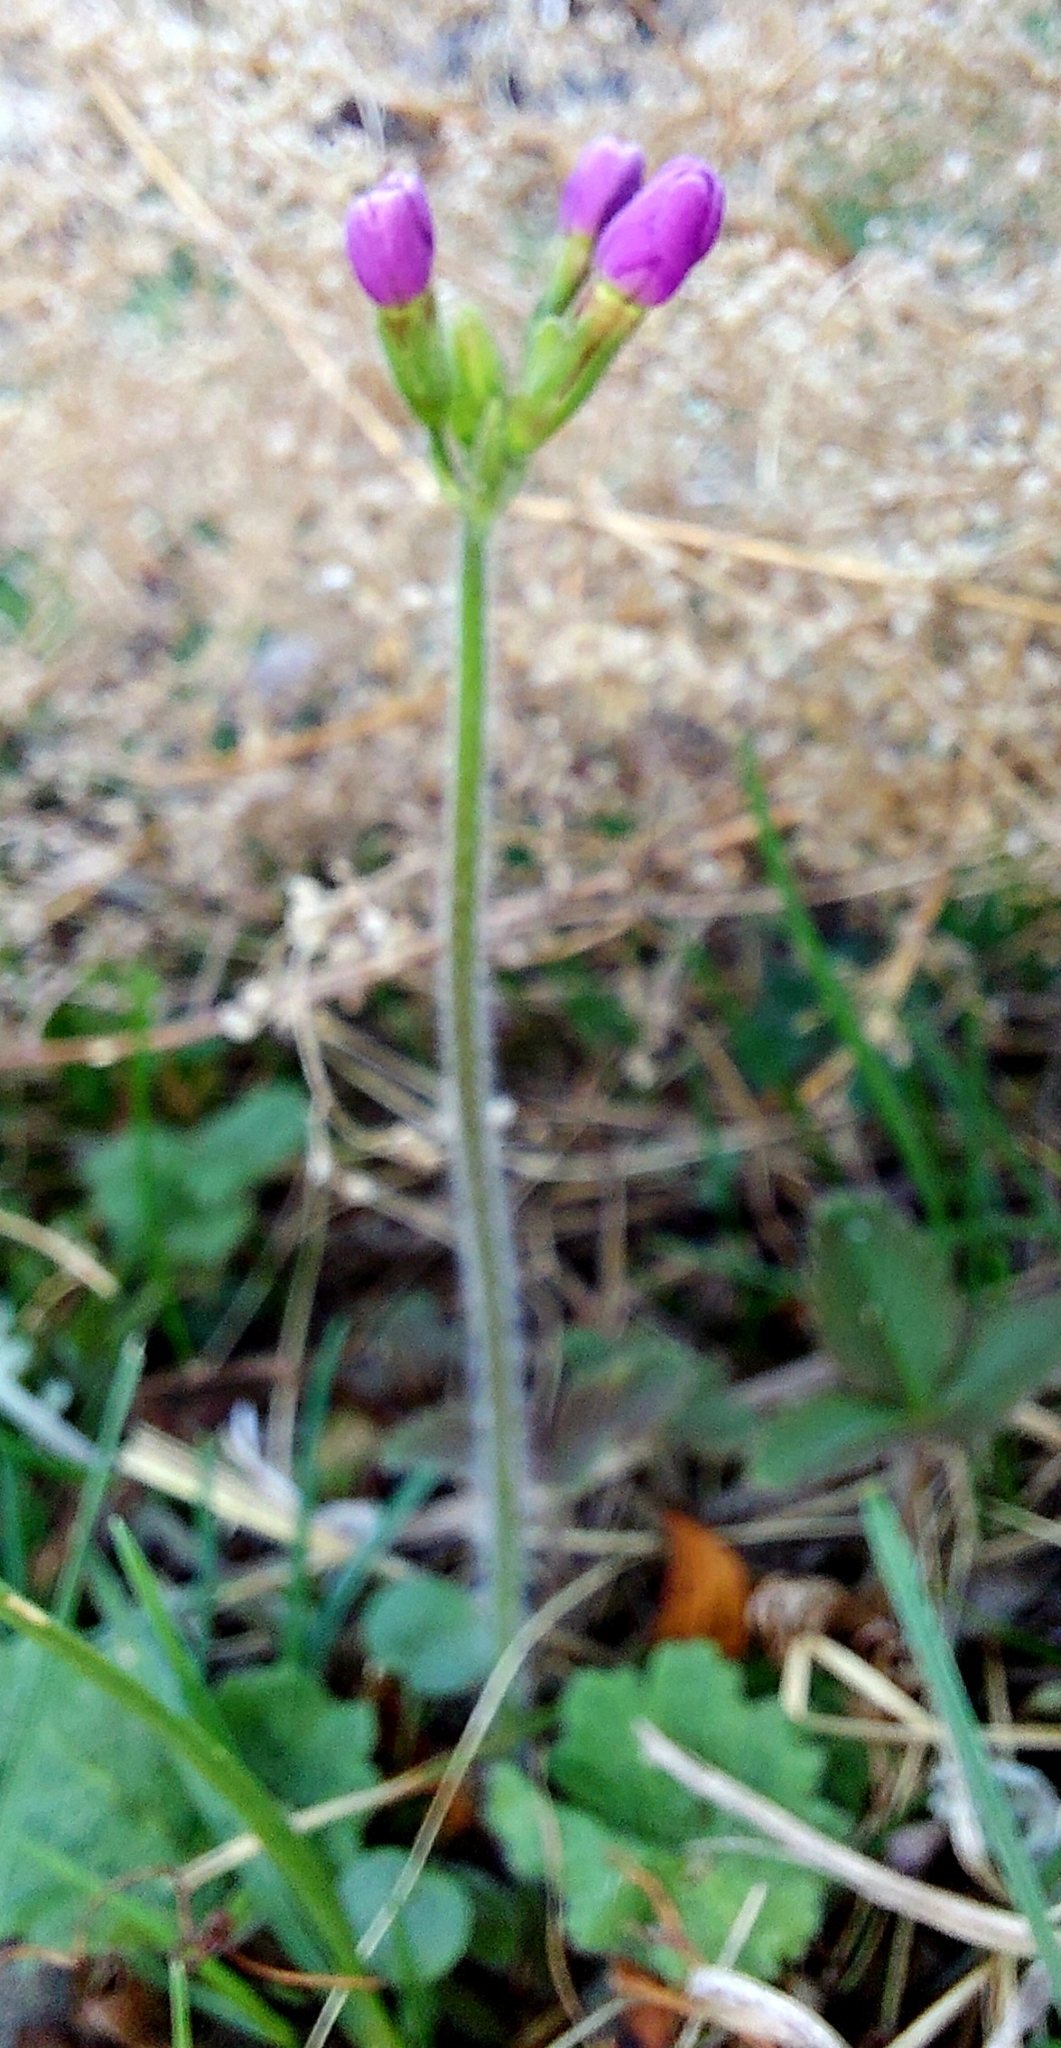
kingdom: Plantae
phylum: Tracheophyta
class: Magnoliopsida
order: Ericales
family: Primulaceae
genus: Primula
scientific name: Primula cortusoides
